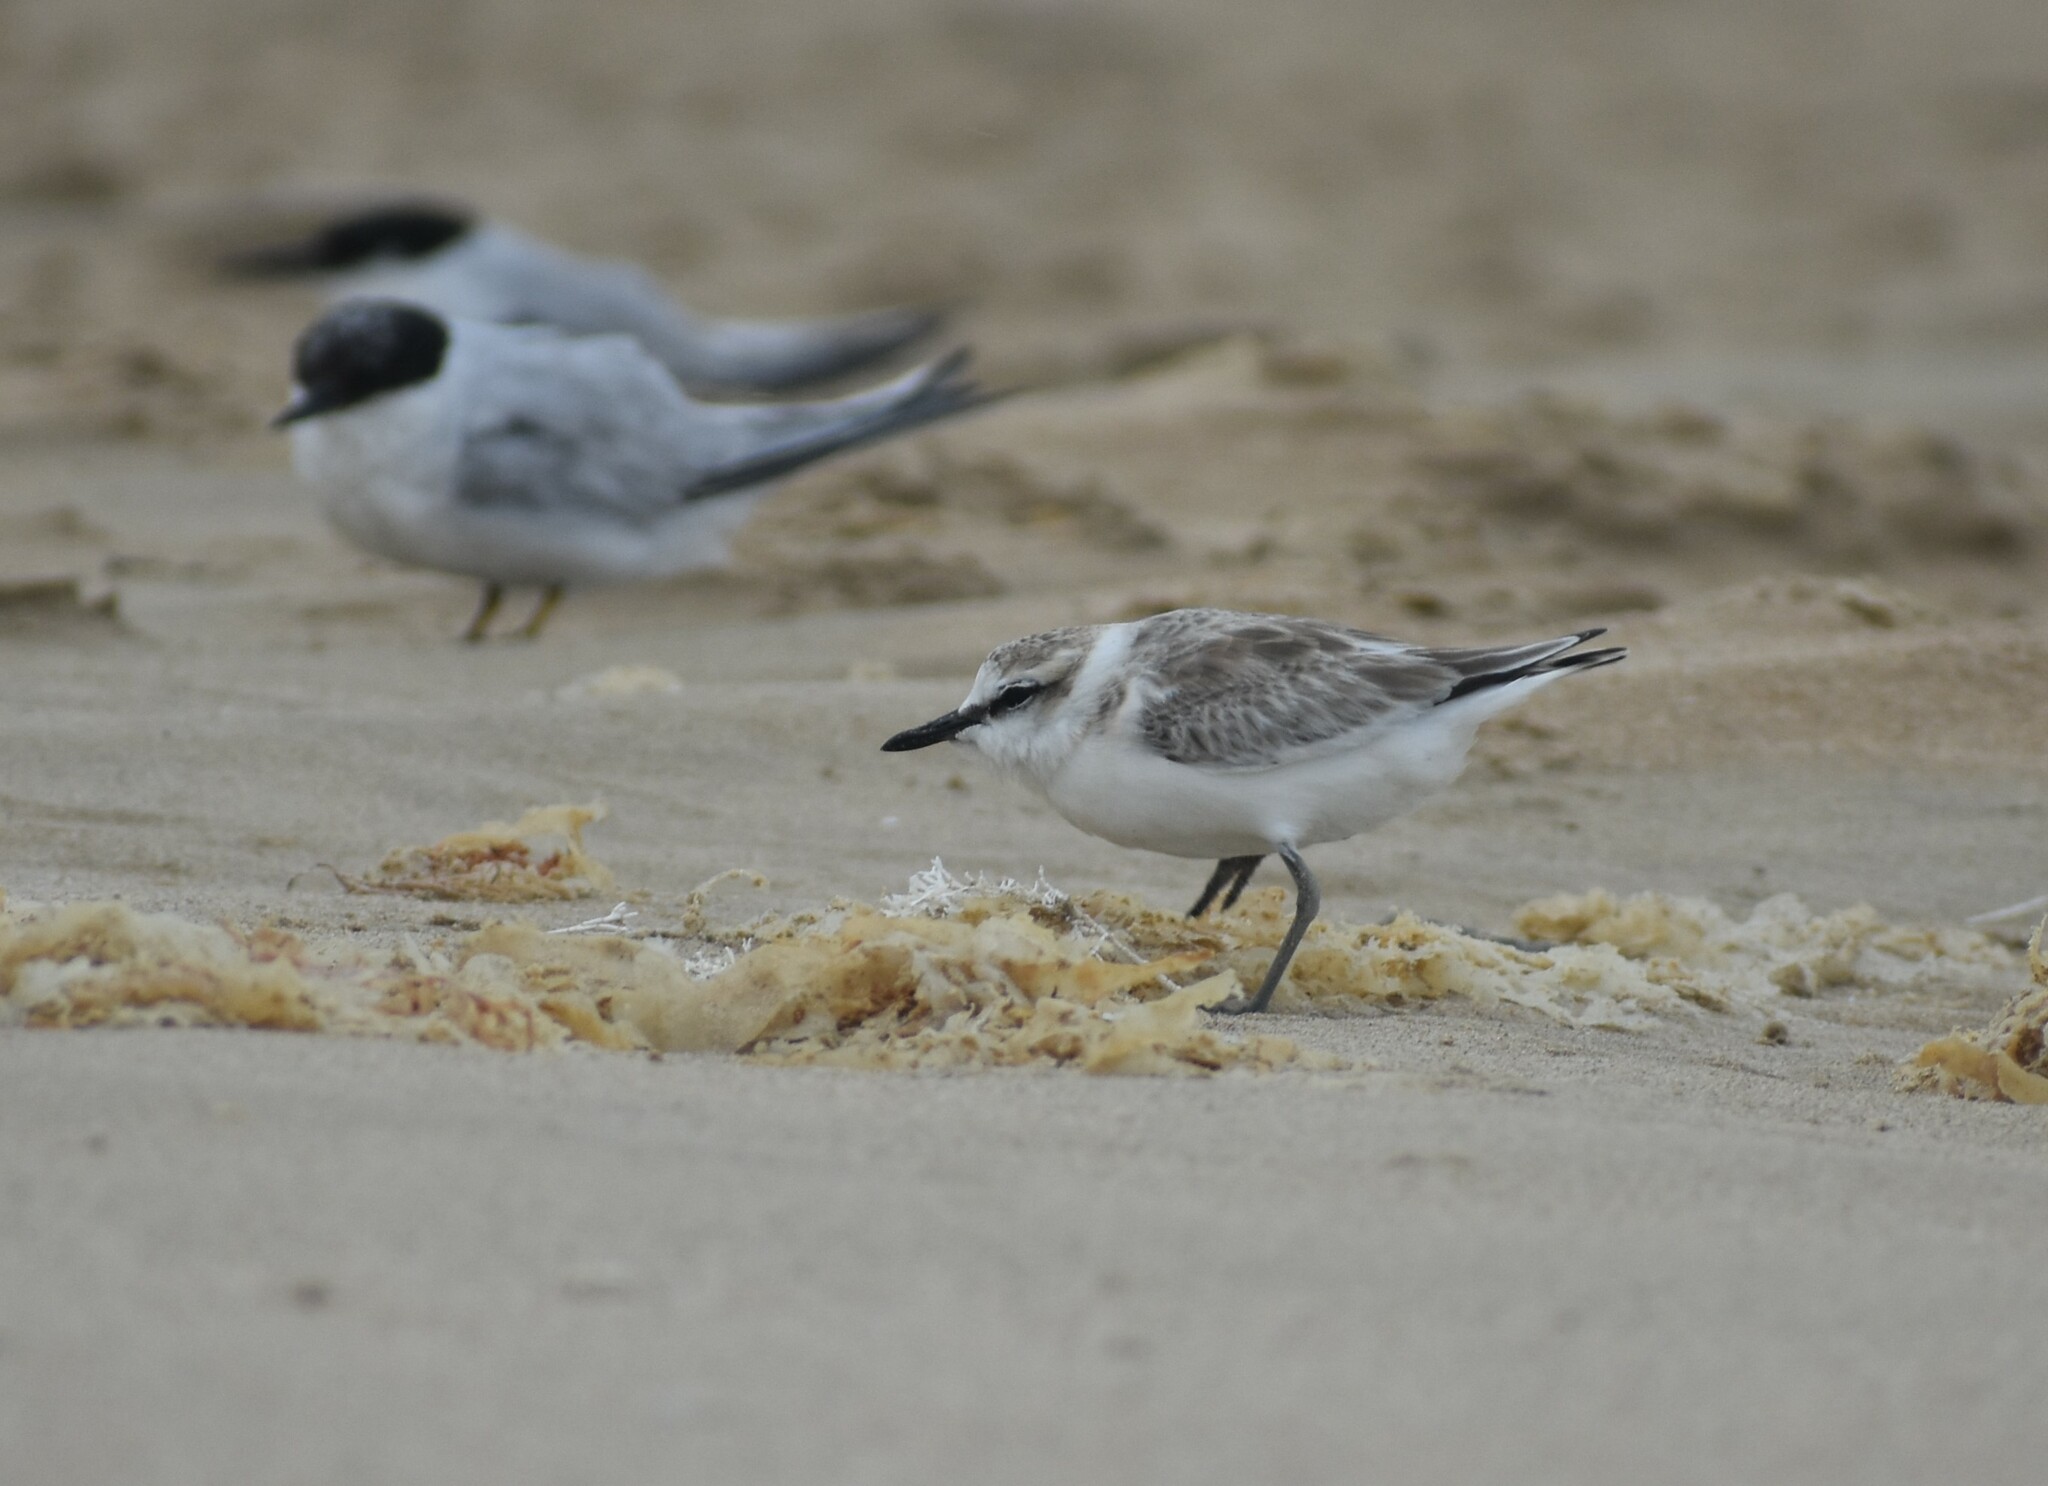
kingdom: Animalia
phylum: Chordata
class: Aves
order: Charadriiformes
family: Charadriidae
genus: Anarhynchus
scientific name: Anarhynchus
